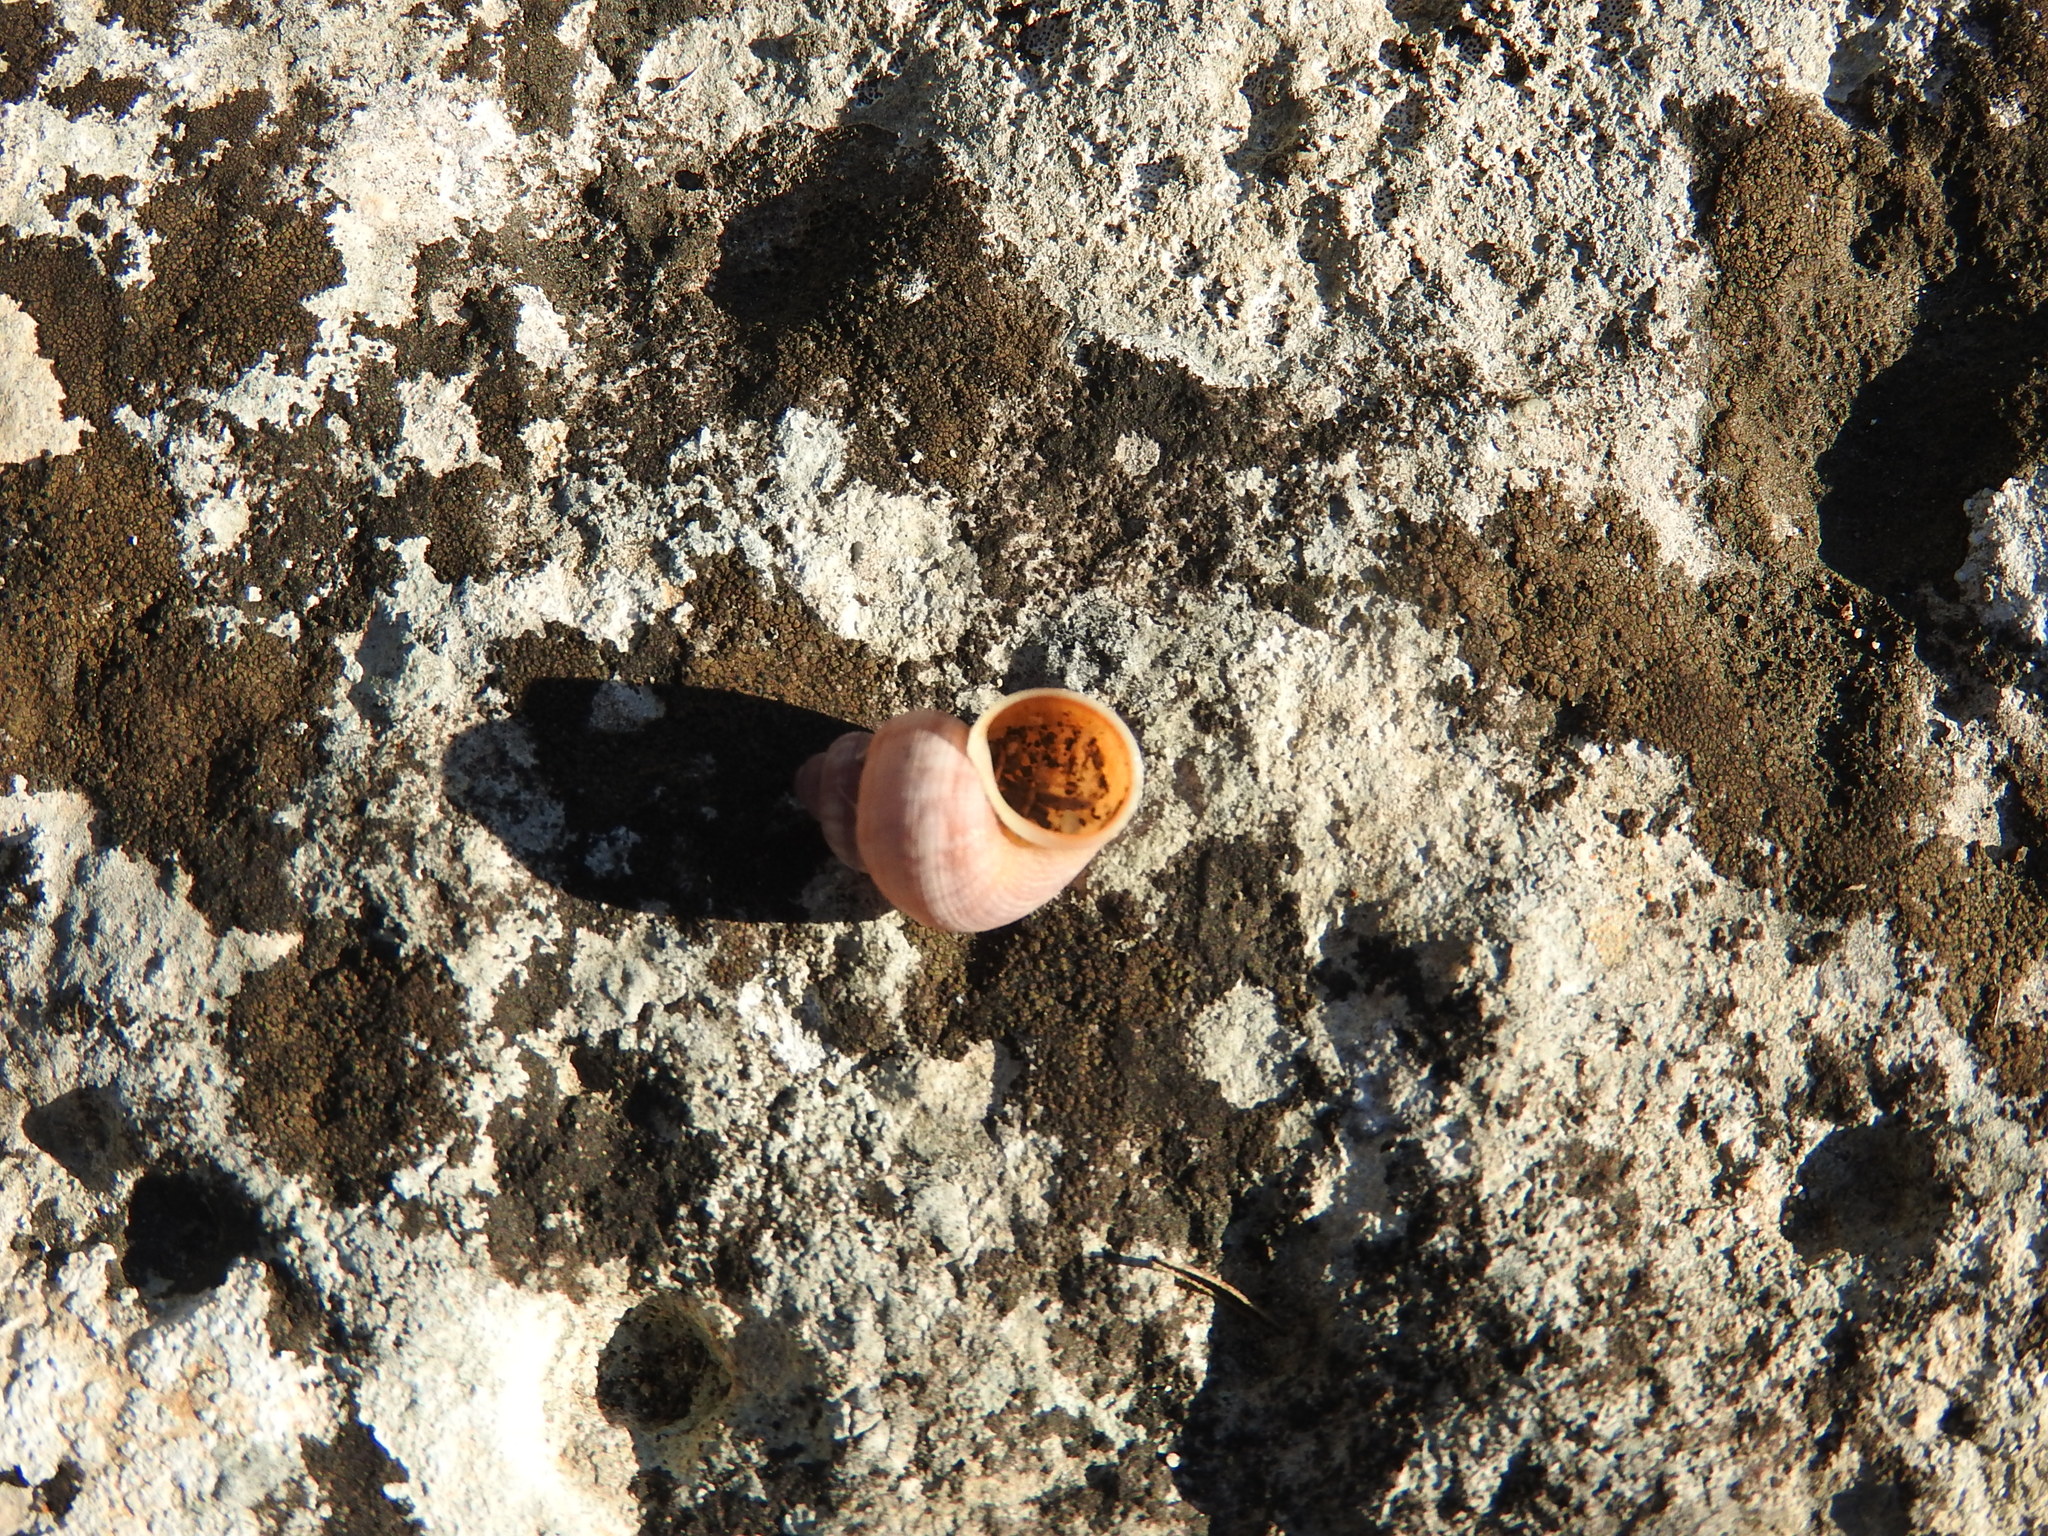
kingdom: Animalia
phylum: Mollusca
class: Gastropoda
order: Littorinimorpha
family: Pomatiidae
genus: Pomatias
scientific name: Pomatias elegans
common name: Red-mouthed snail
